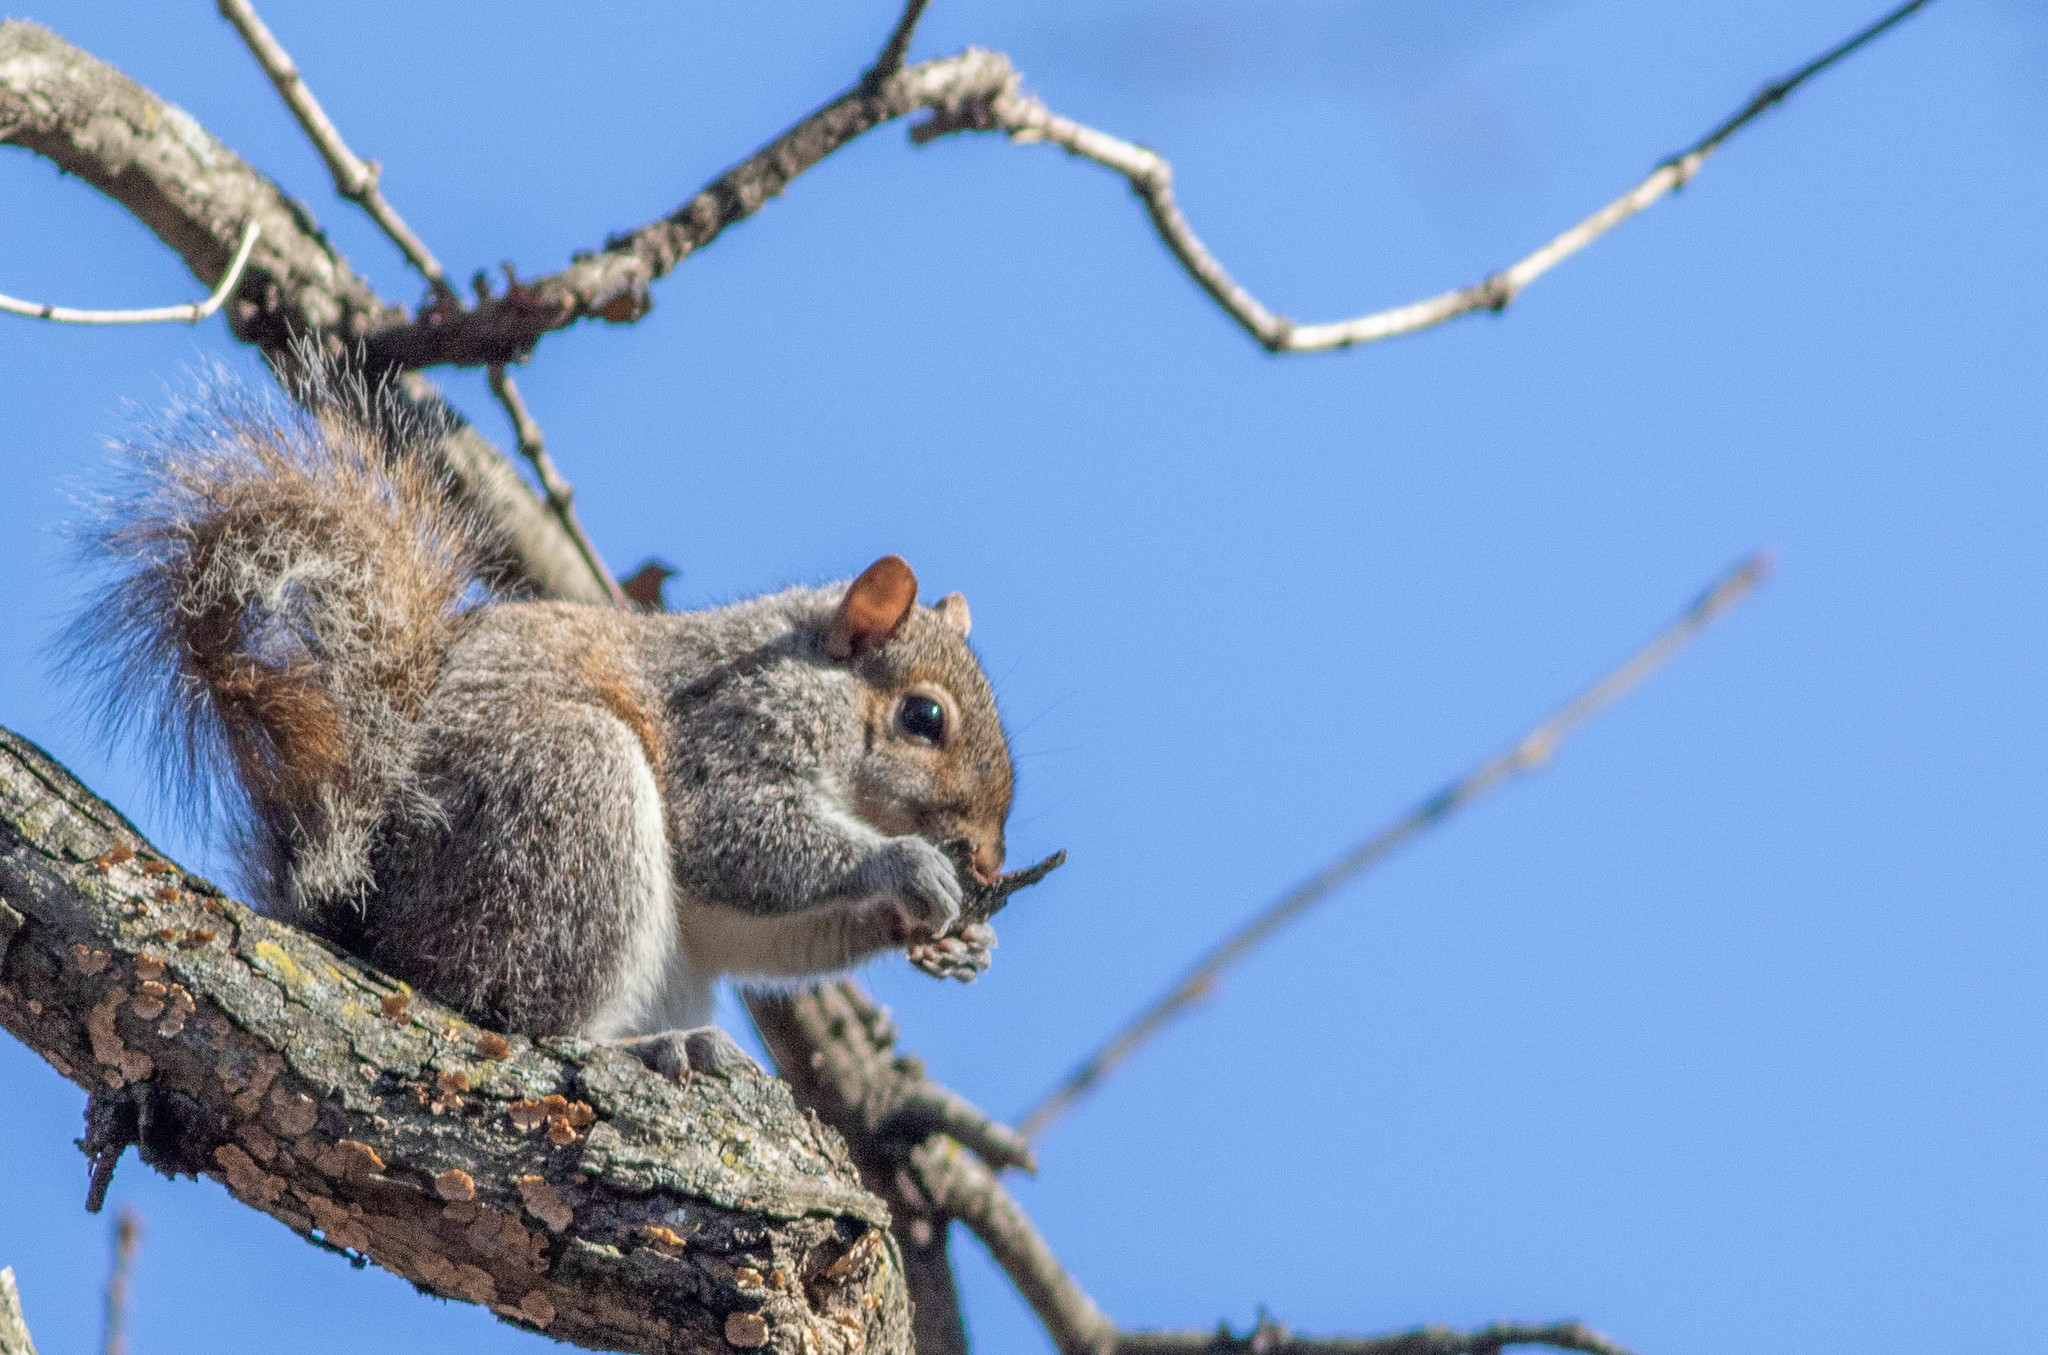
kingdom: Animalia
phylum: Chordata
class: Mammalia
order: Rodentia
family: Sciuridae
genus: Sciurus
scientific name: Sciurus carolinensis
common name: Eastern gray squirrel
